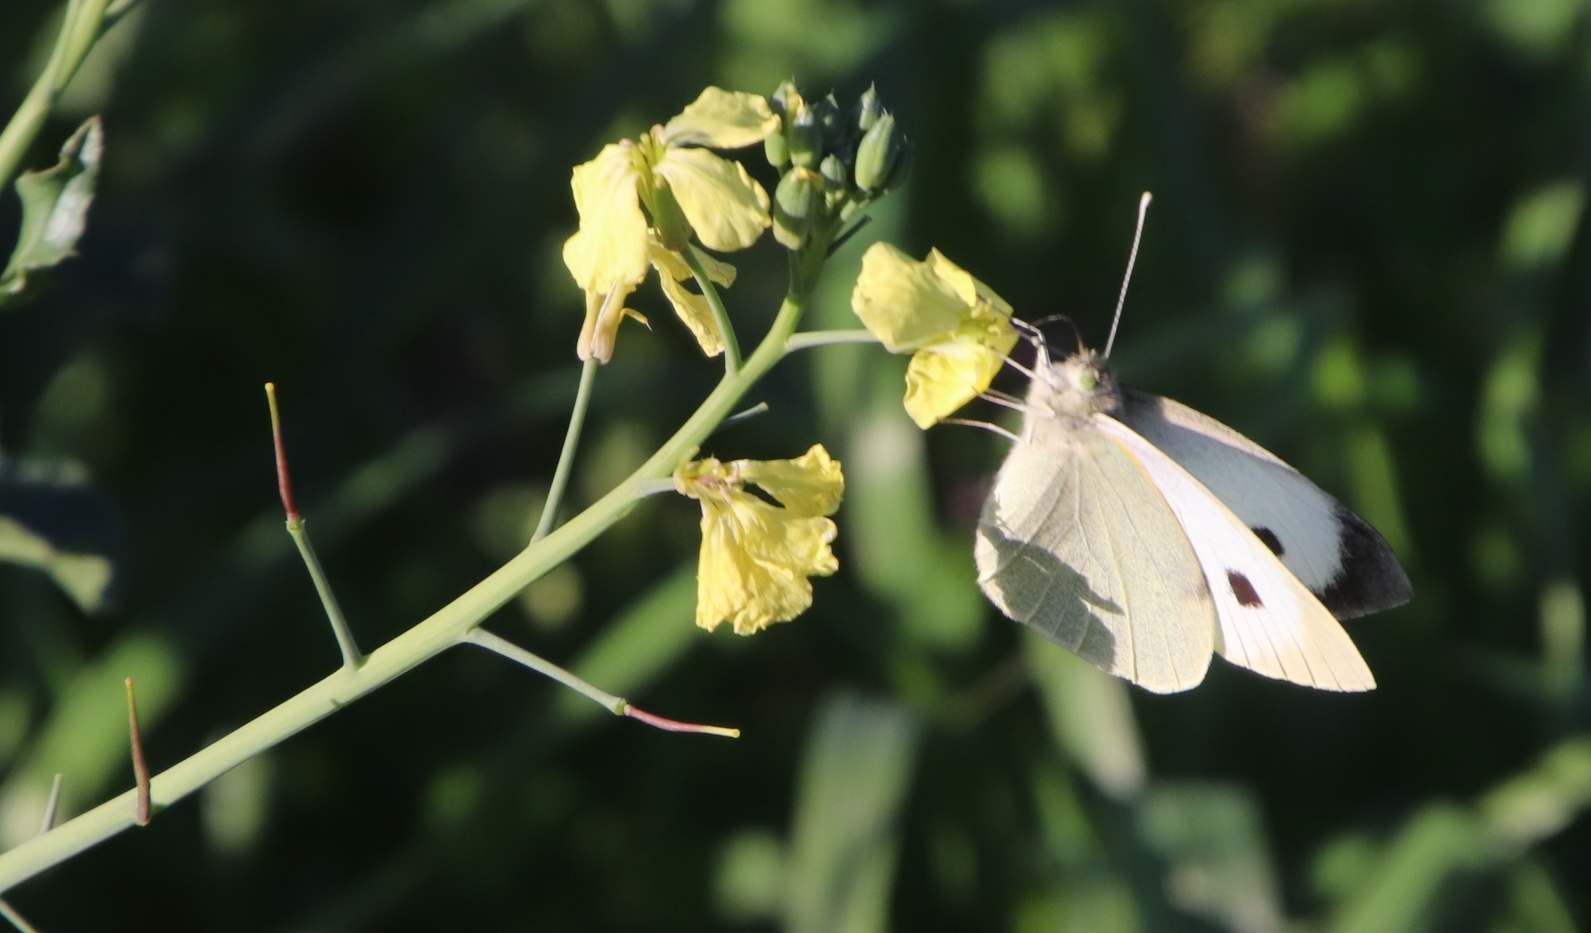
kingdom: Plantae
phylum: Tracheophyta
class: Magnoliopsida
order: Brassicales
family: Brassicaceae
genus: Raphanus
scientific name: Raphanus raphanistrum
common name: Wild radish
